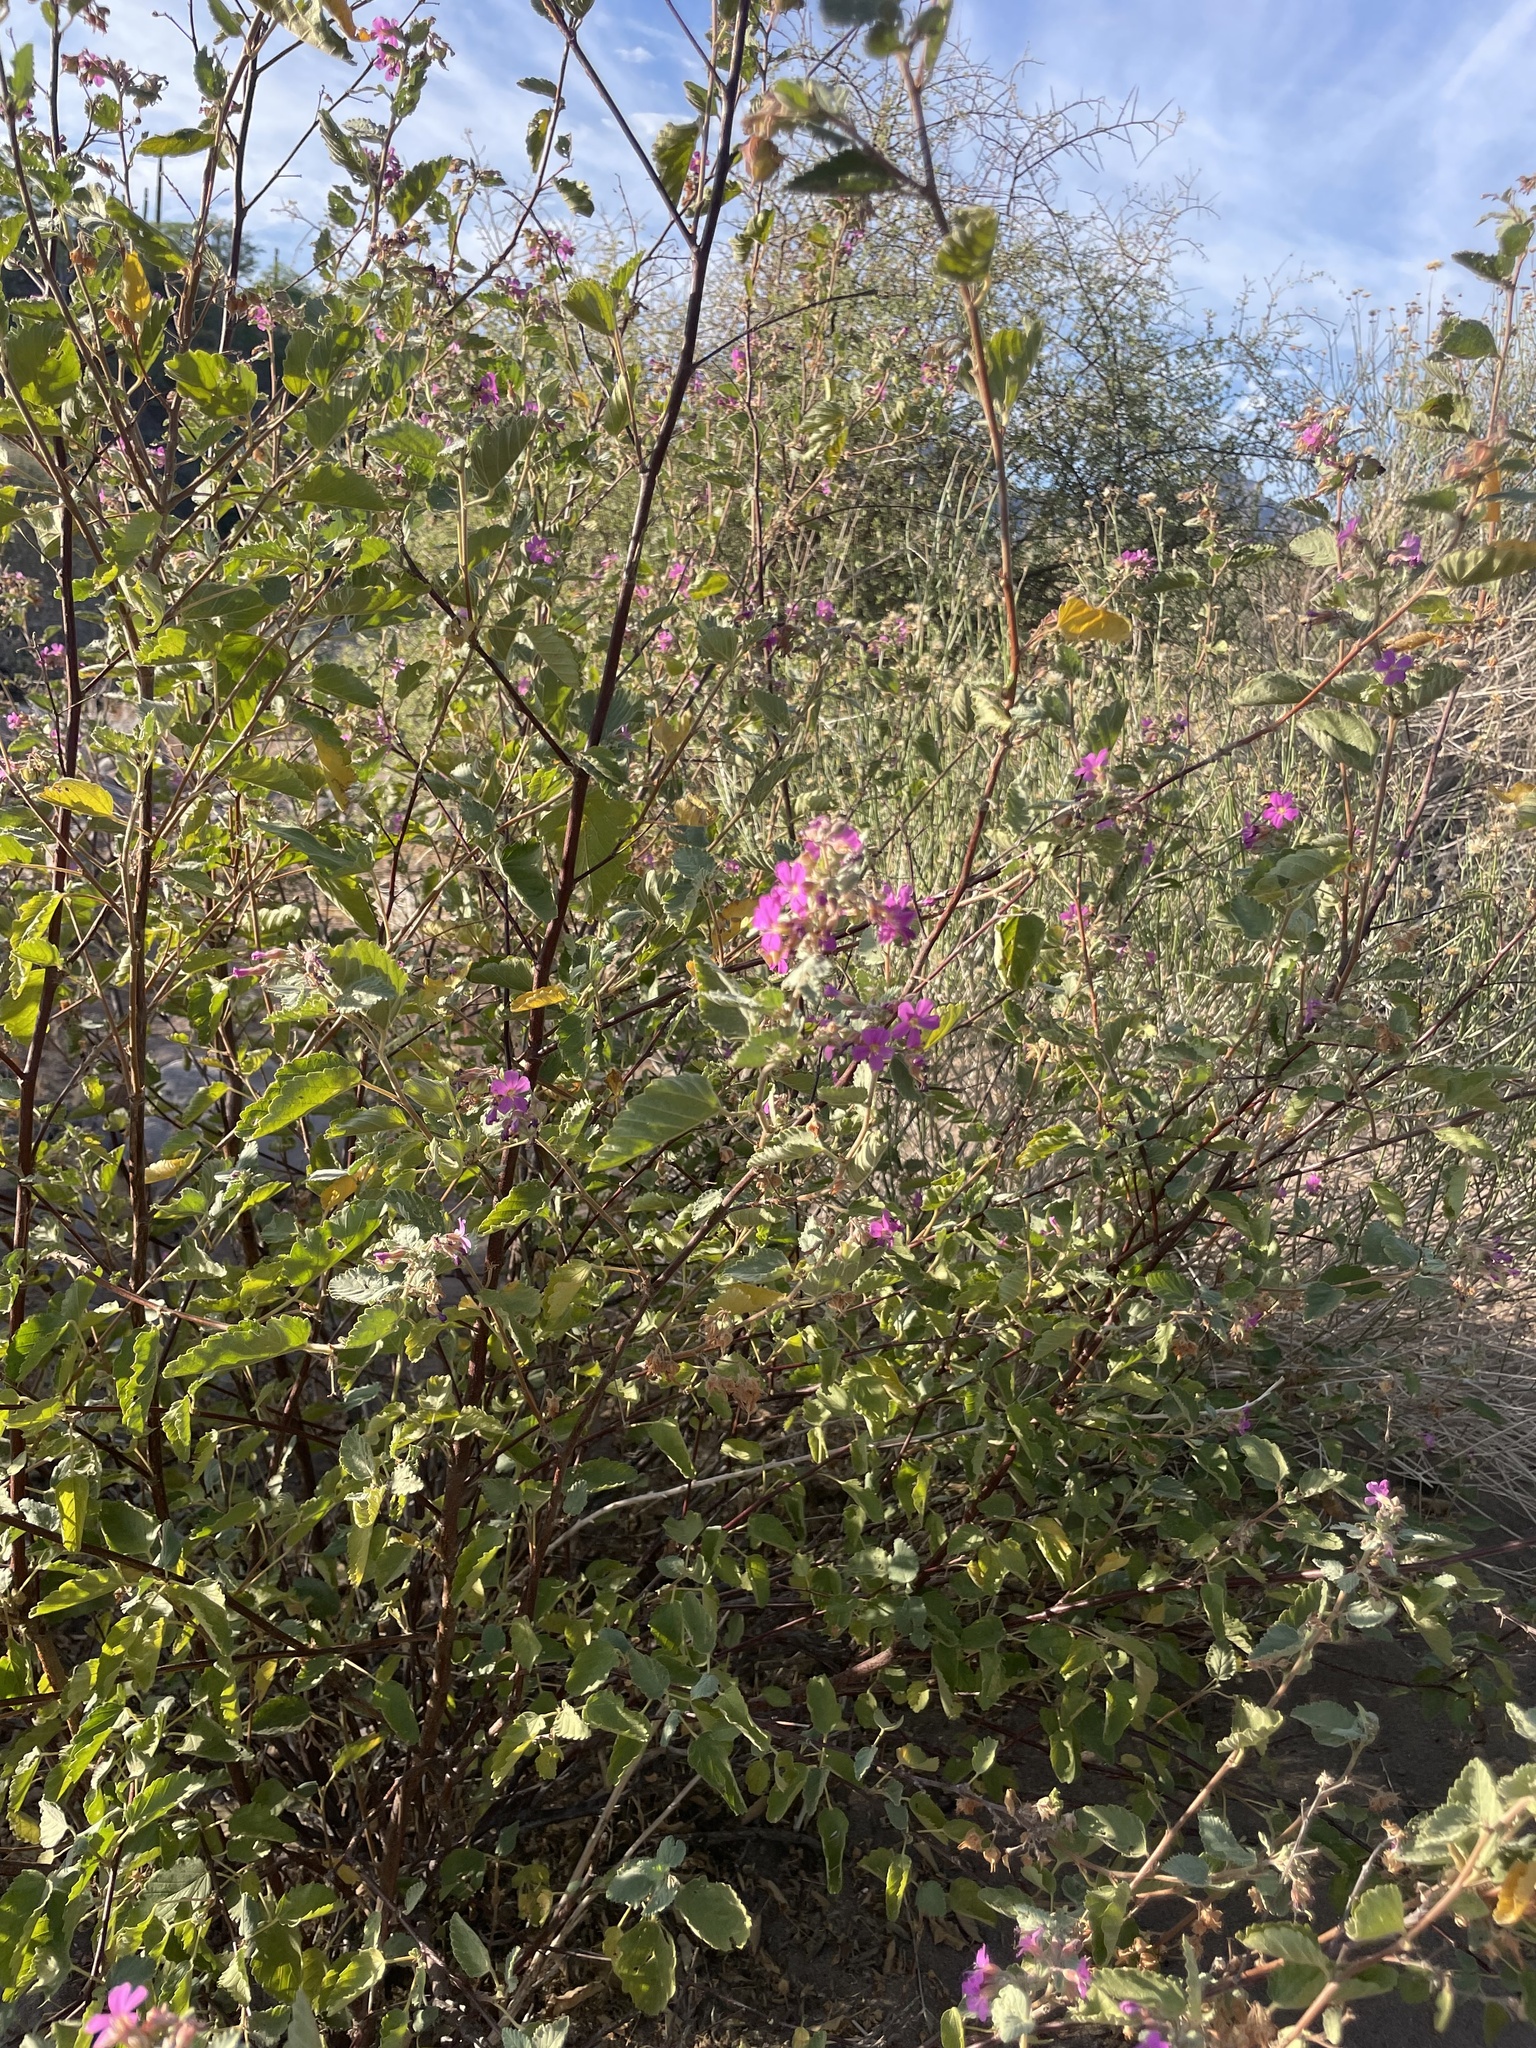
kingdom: Plantae
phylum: Tracheophyta
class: Magnoliopsida
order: Malvales
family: Malvaceae
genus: Melochia
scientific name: Melochia tomentosa
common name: Black torch
